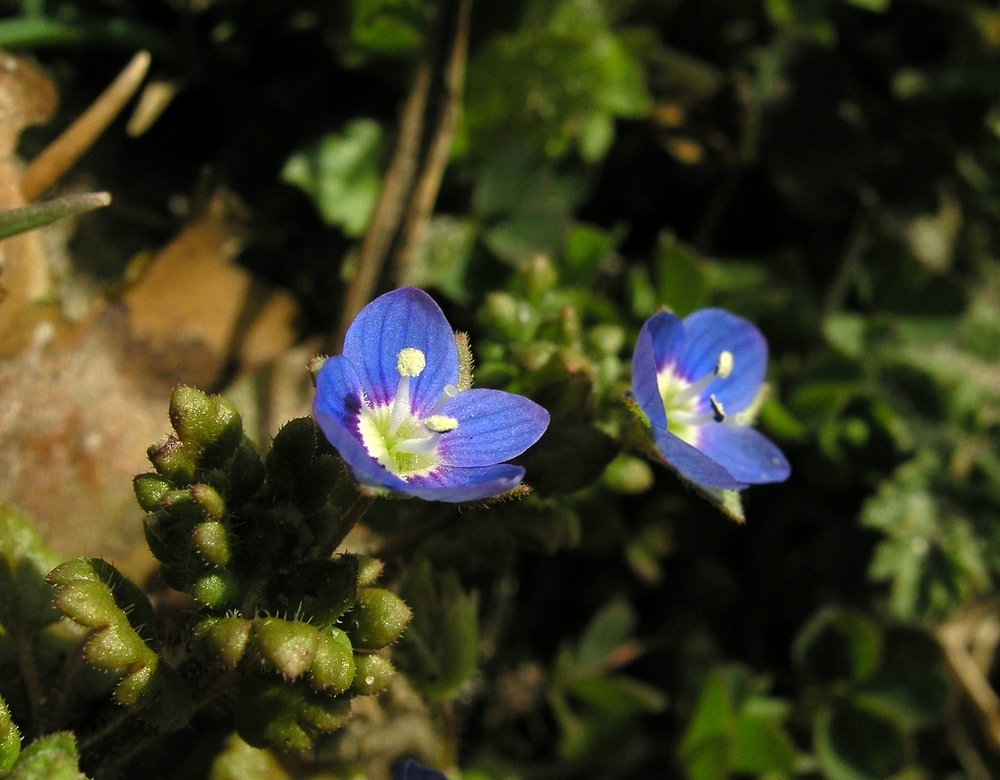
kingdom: Plantae
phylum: Tracheophyta
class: Magnoliopsida
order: Lamiales
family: Plantaginaceae
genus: Veronica
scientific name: Veronica polita
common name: Grey field-speedwell
